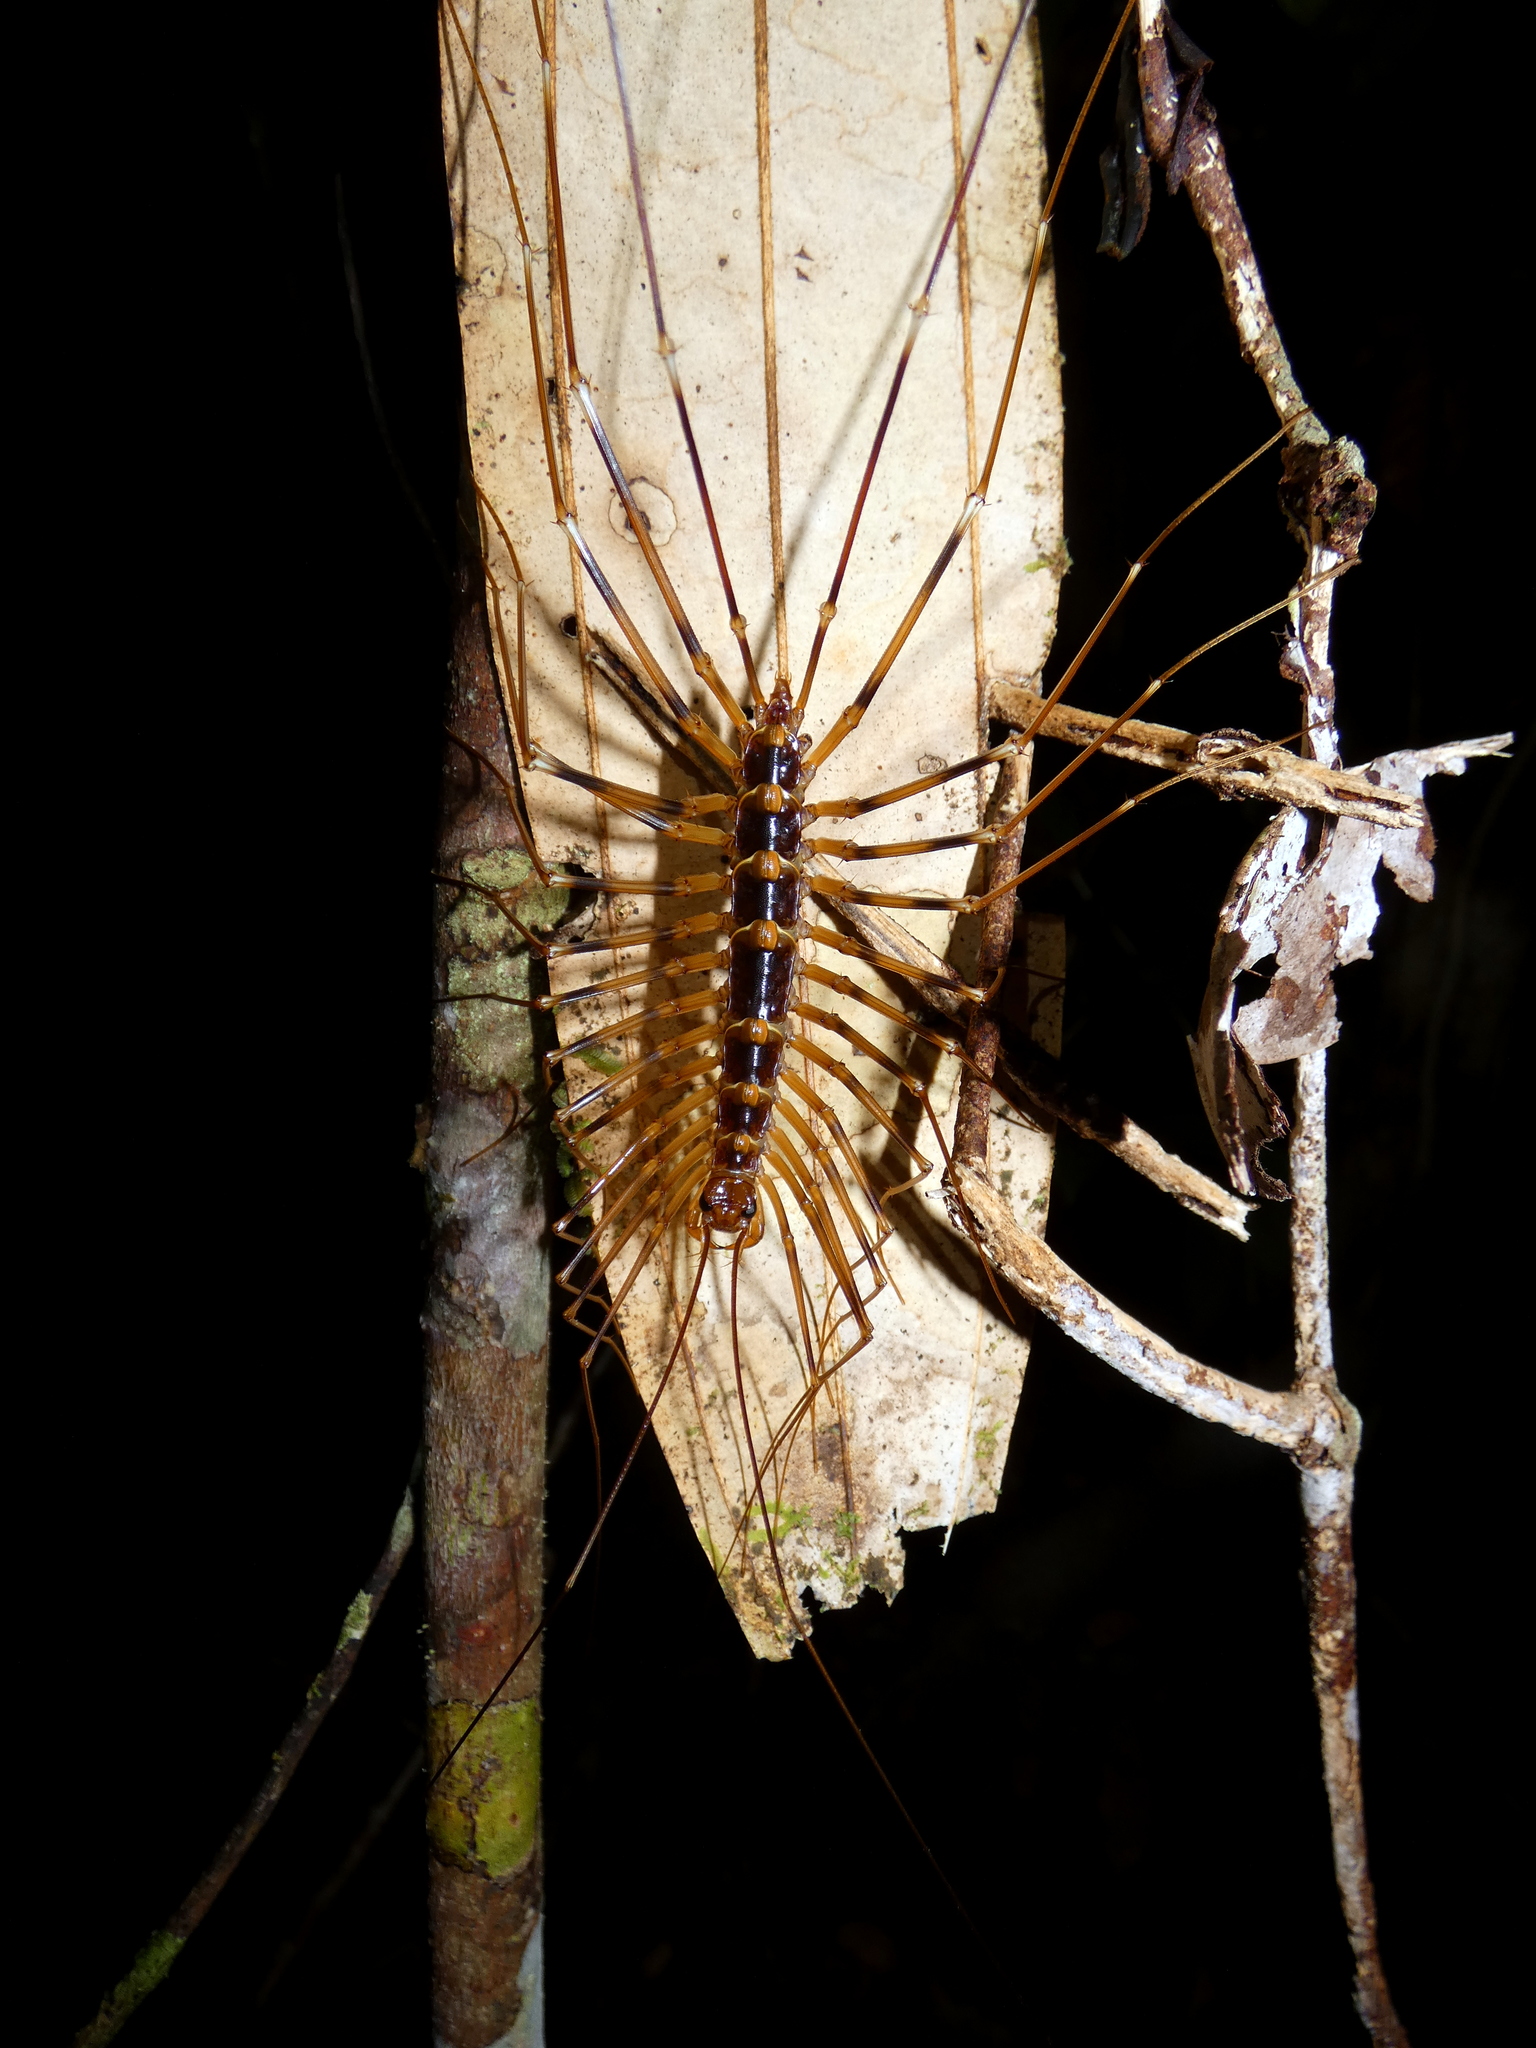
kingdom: Animalia
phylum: Arthropoda
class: Chilopoda
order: Scutigeromorpha
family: Scutigeridae
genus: Thereuopoda
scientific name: Thereuopoda longicornis
